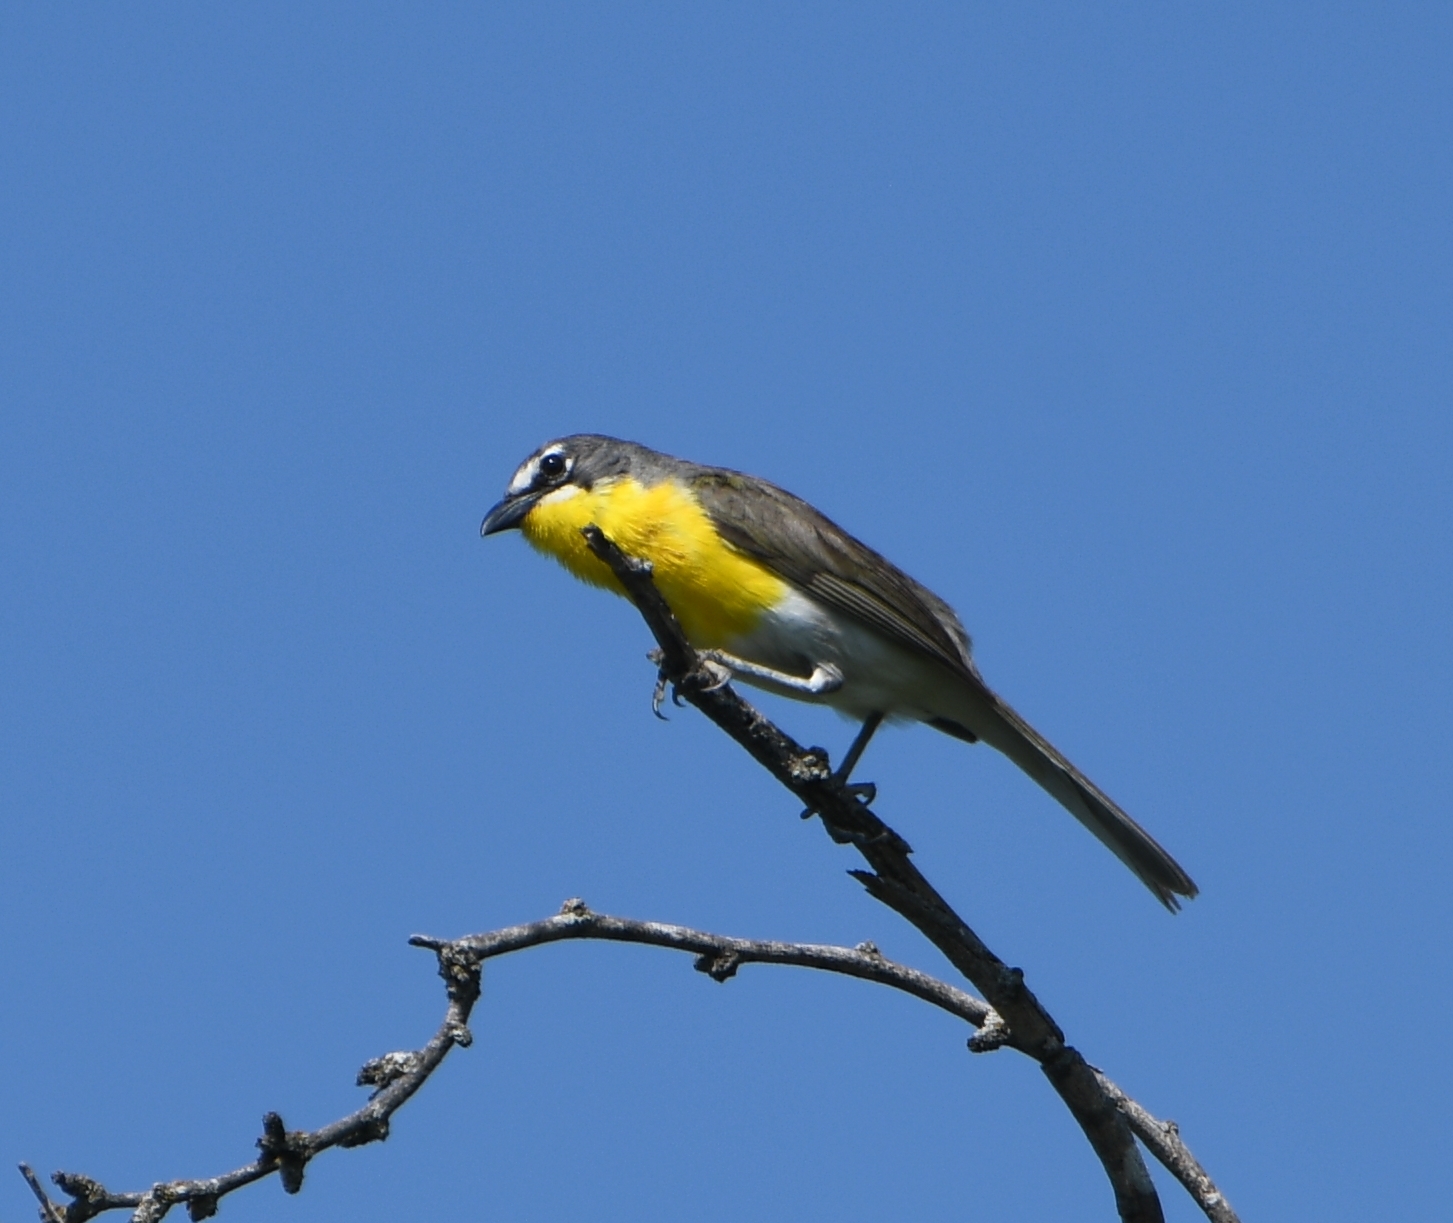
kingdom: Animalia
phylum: Chordata
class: Aves
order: Passeriformes
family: Parulidae
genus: Icteria
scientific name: Icteria virens
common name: Yellow-breasted chat
